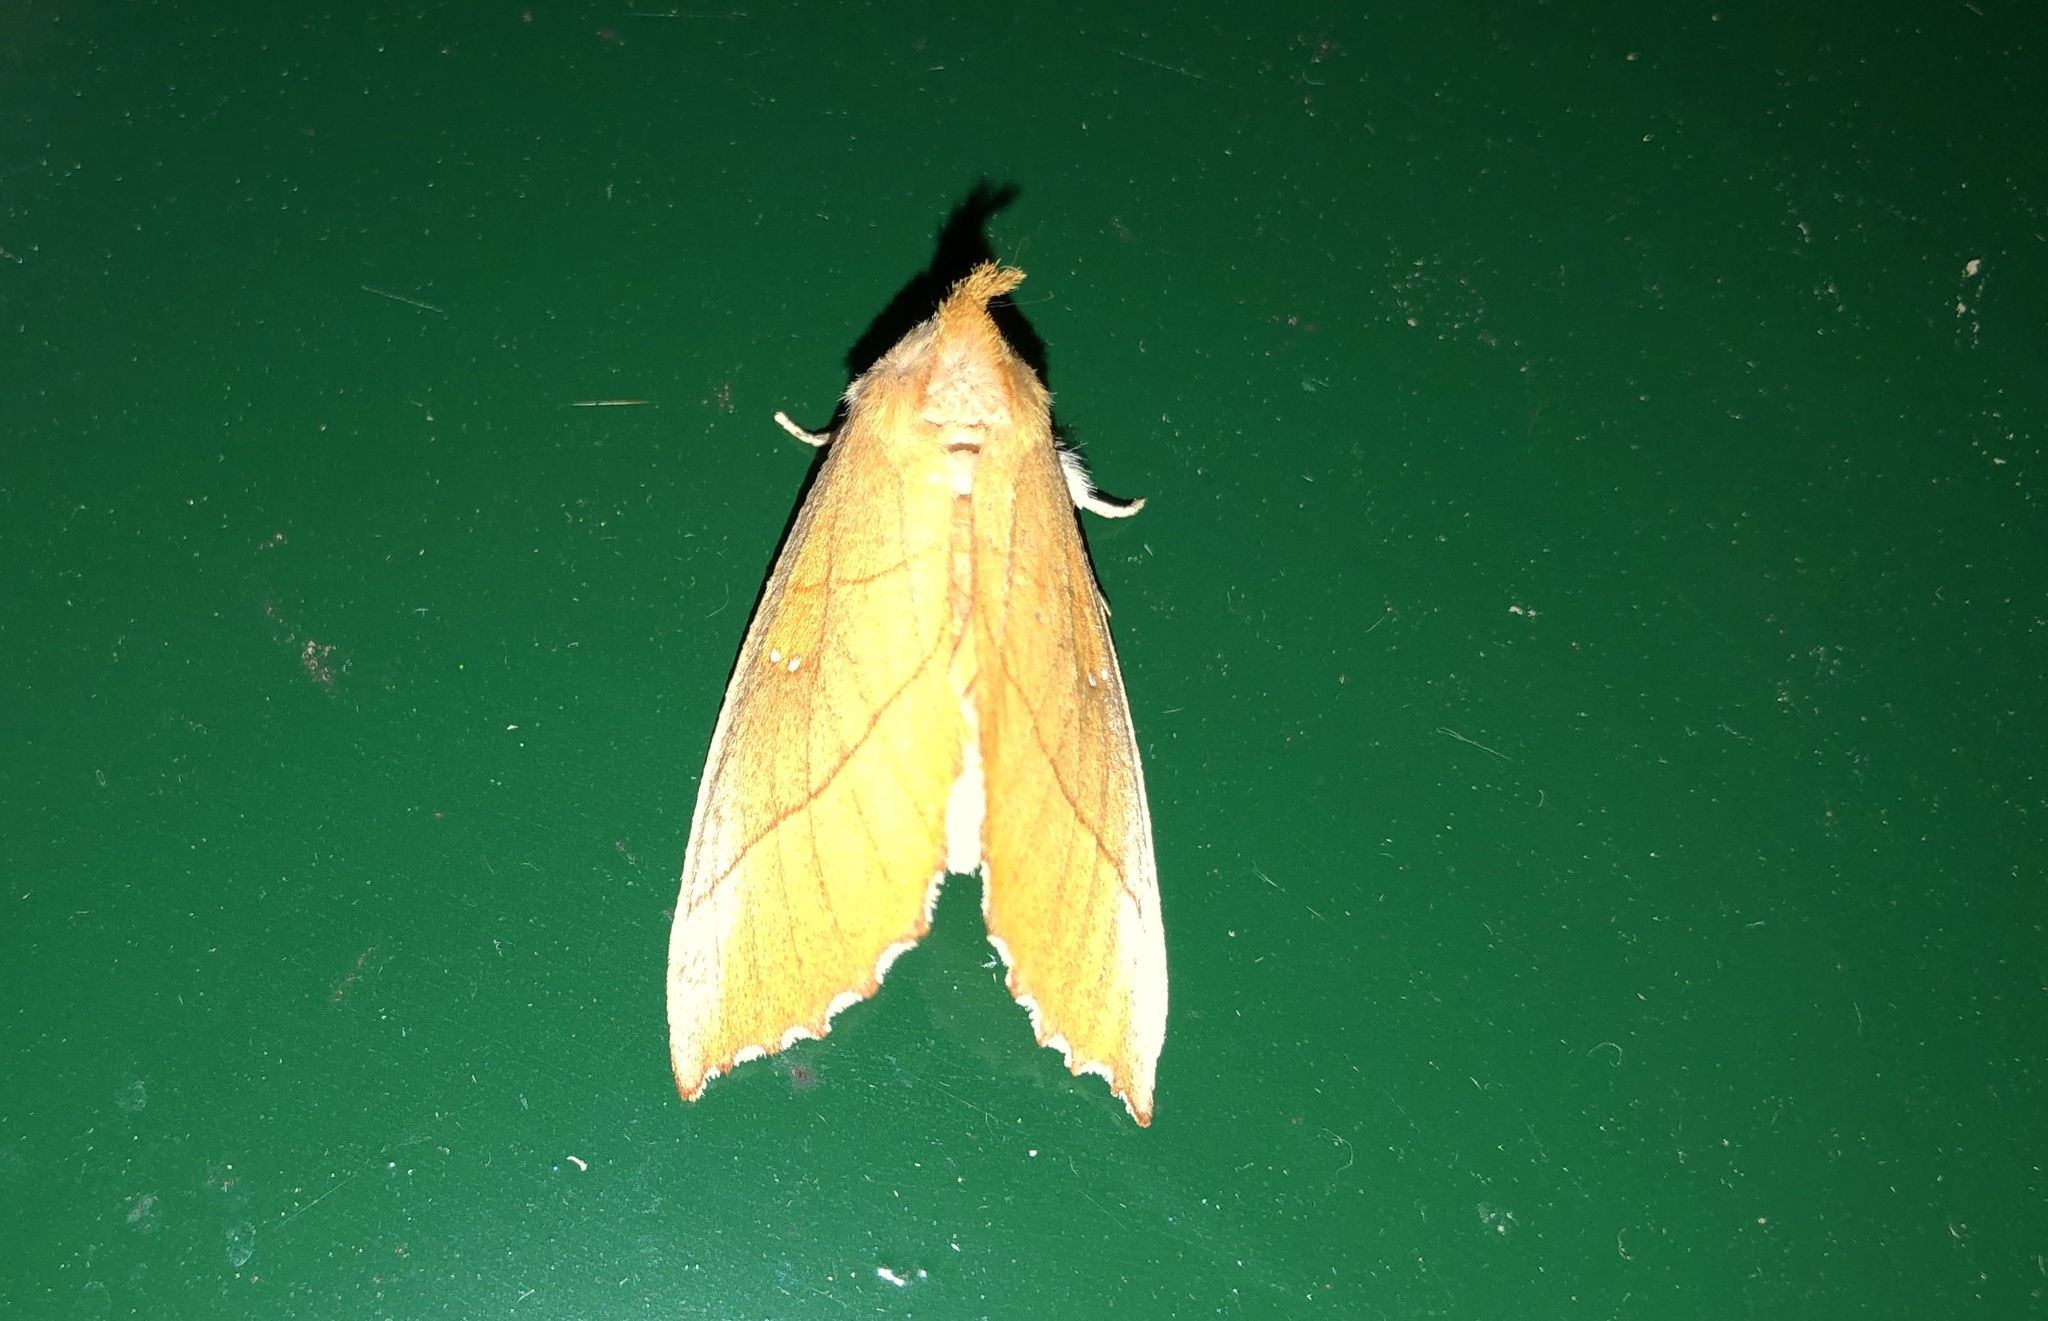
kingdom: Animalia
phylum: Arthropoda
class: Insecta
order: Lepidoptera
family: Notodontidae
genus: Nadata
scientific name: Nadata gibbosa
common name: White-dotted prominent
